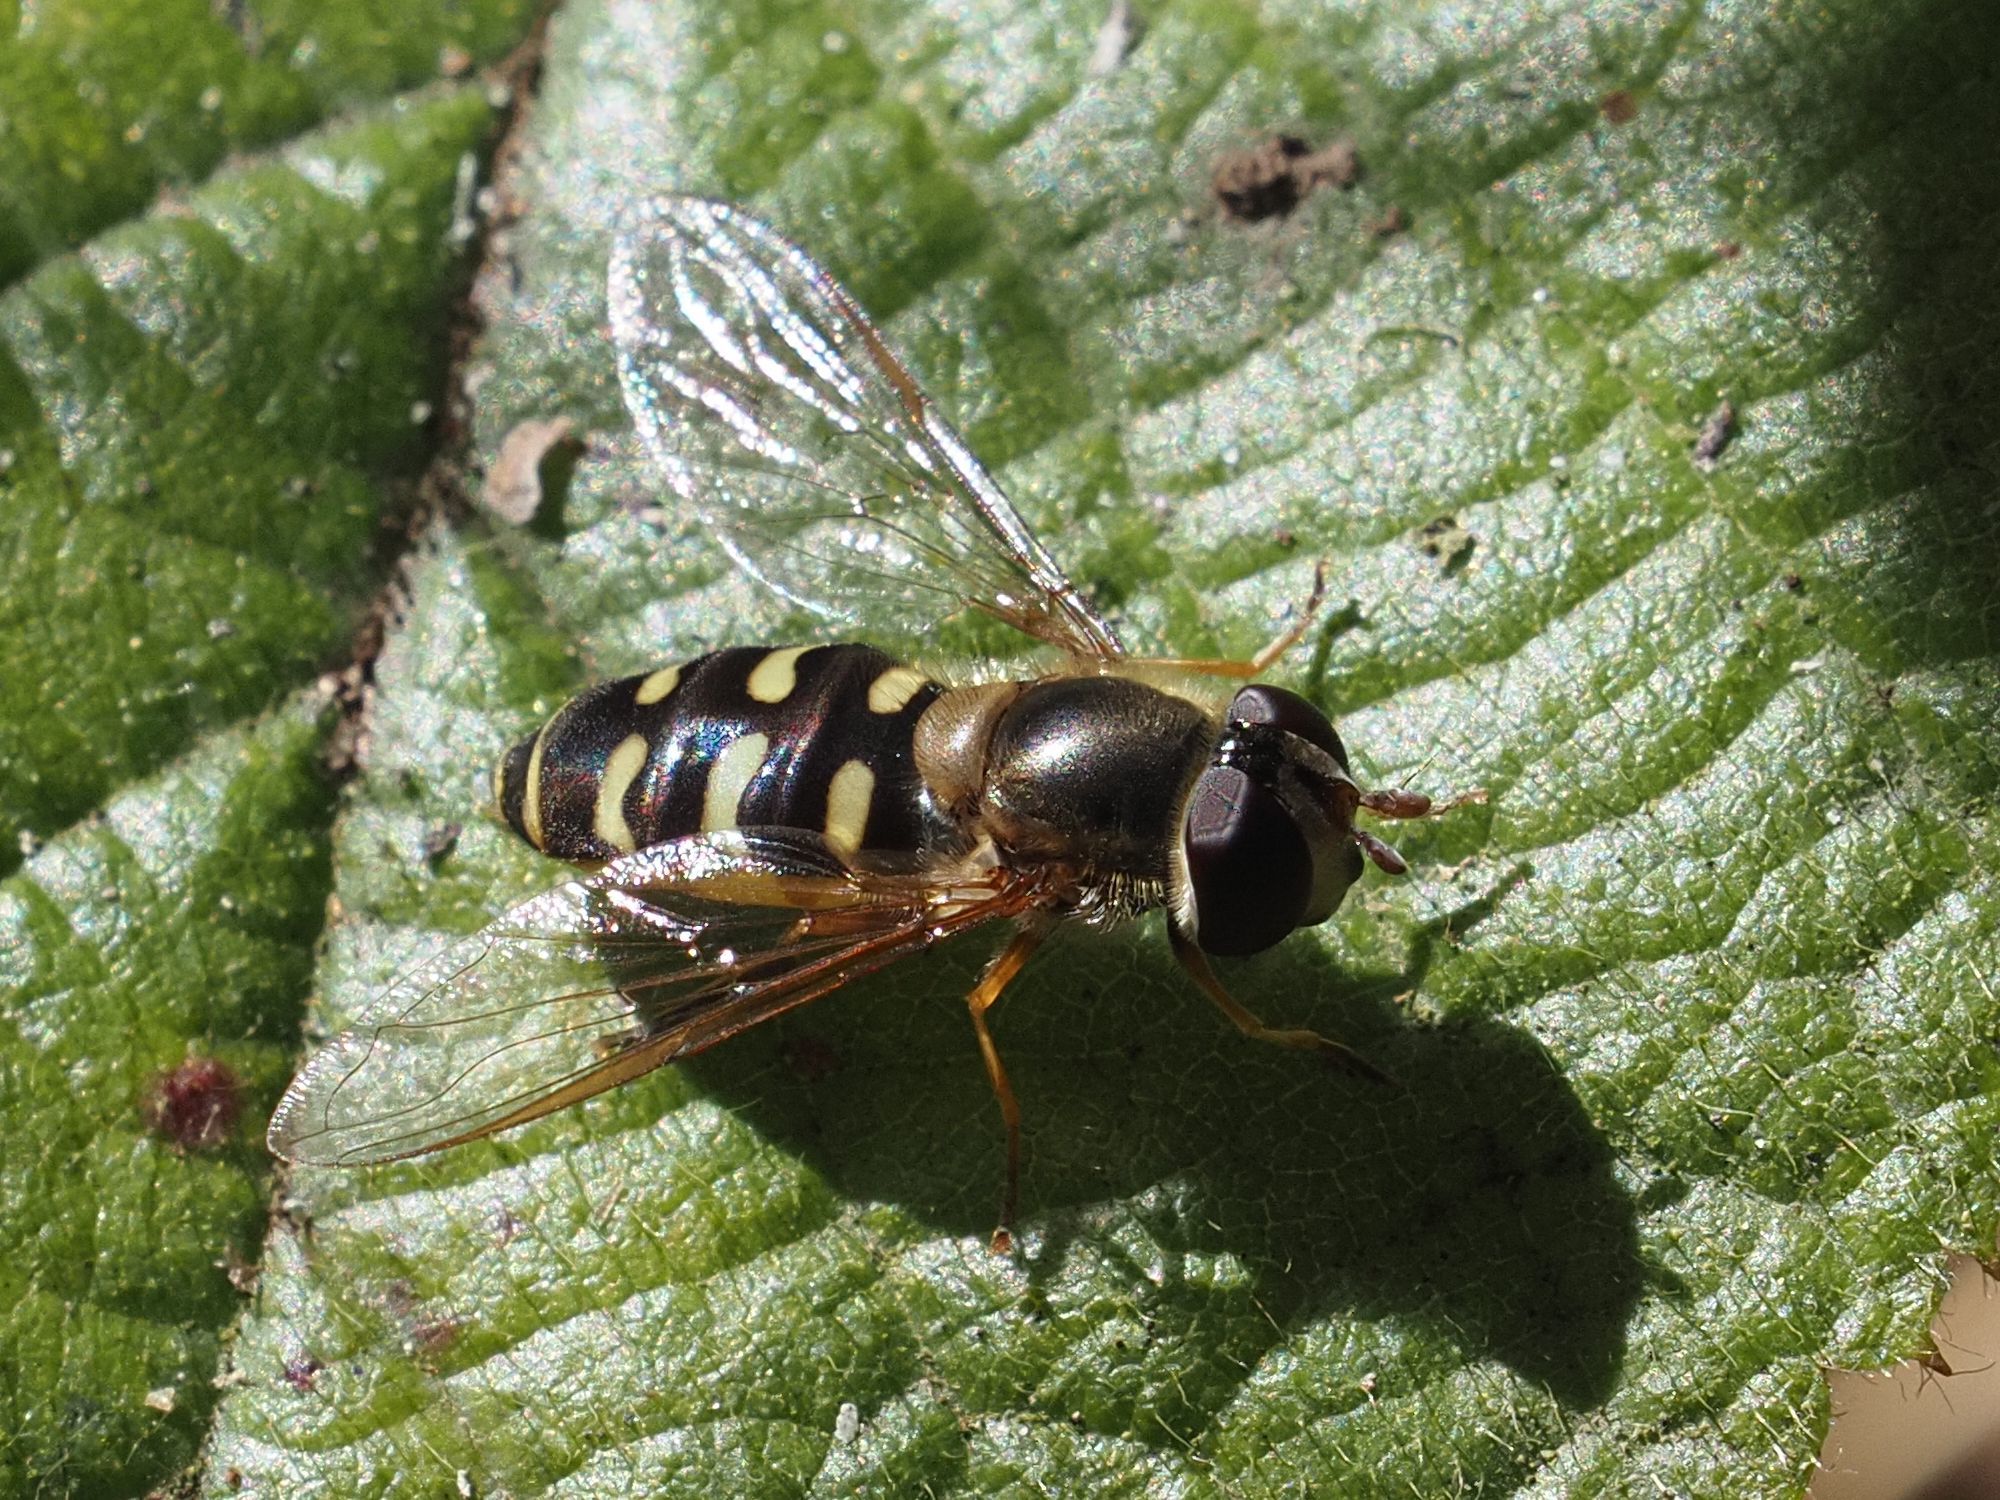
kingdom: Animalia
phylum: Arthropoda
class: Insecta
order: Diptera
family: Syrphidae
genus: Lapposyrphus
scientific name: Lapposyrphus lapponicus
